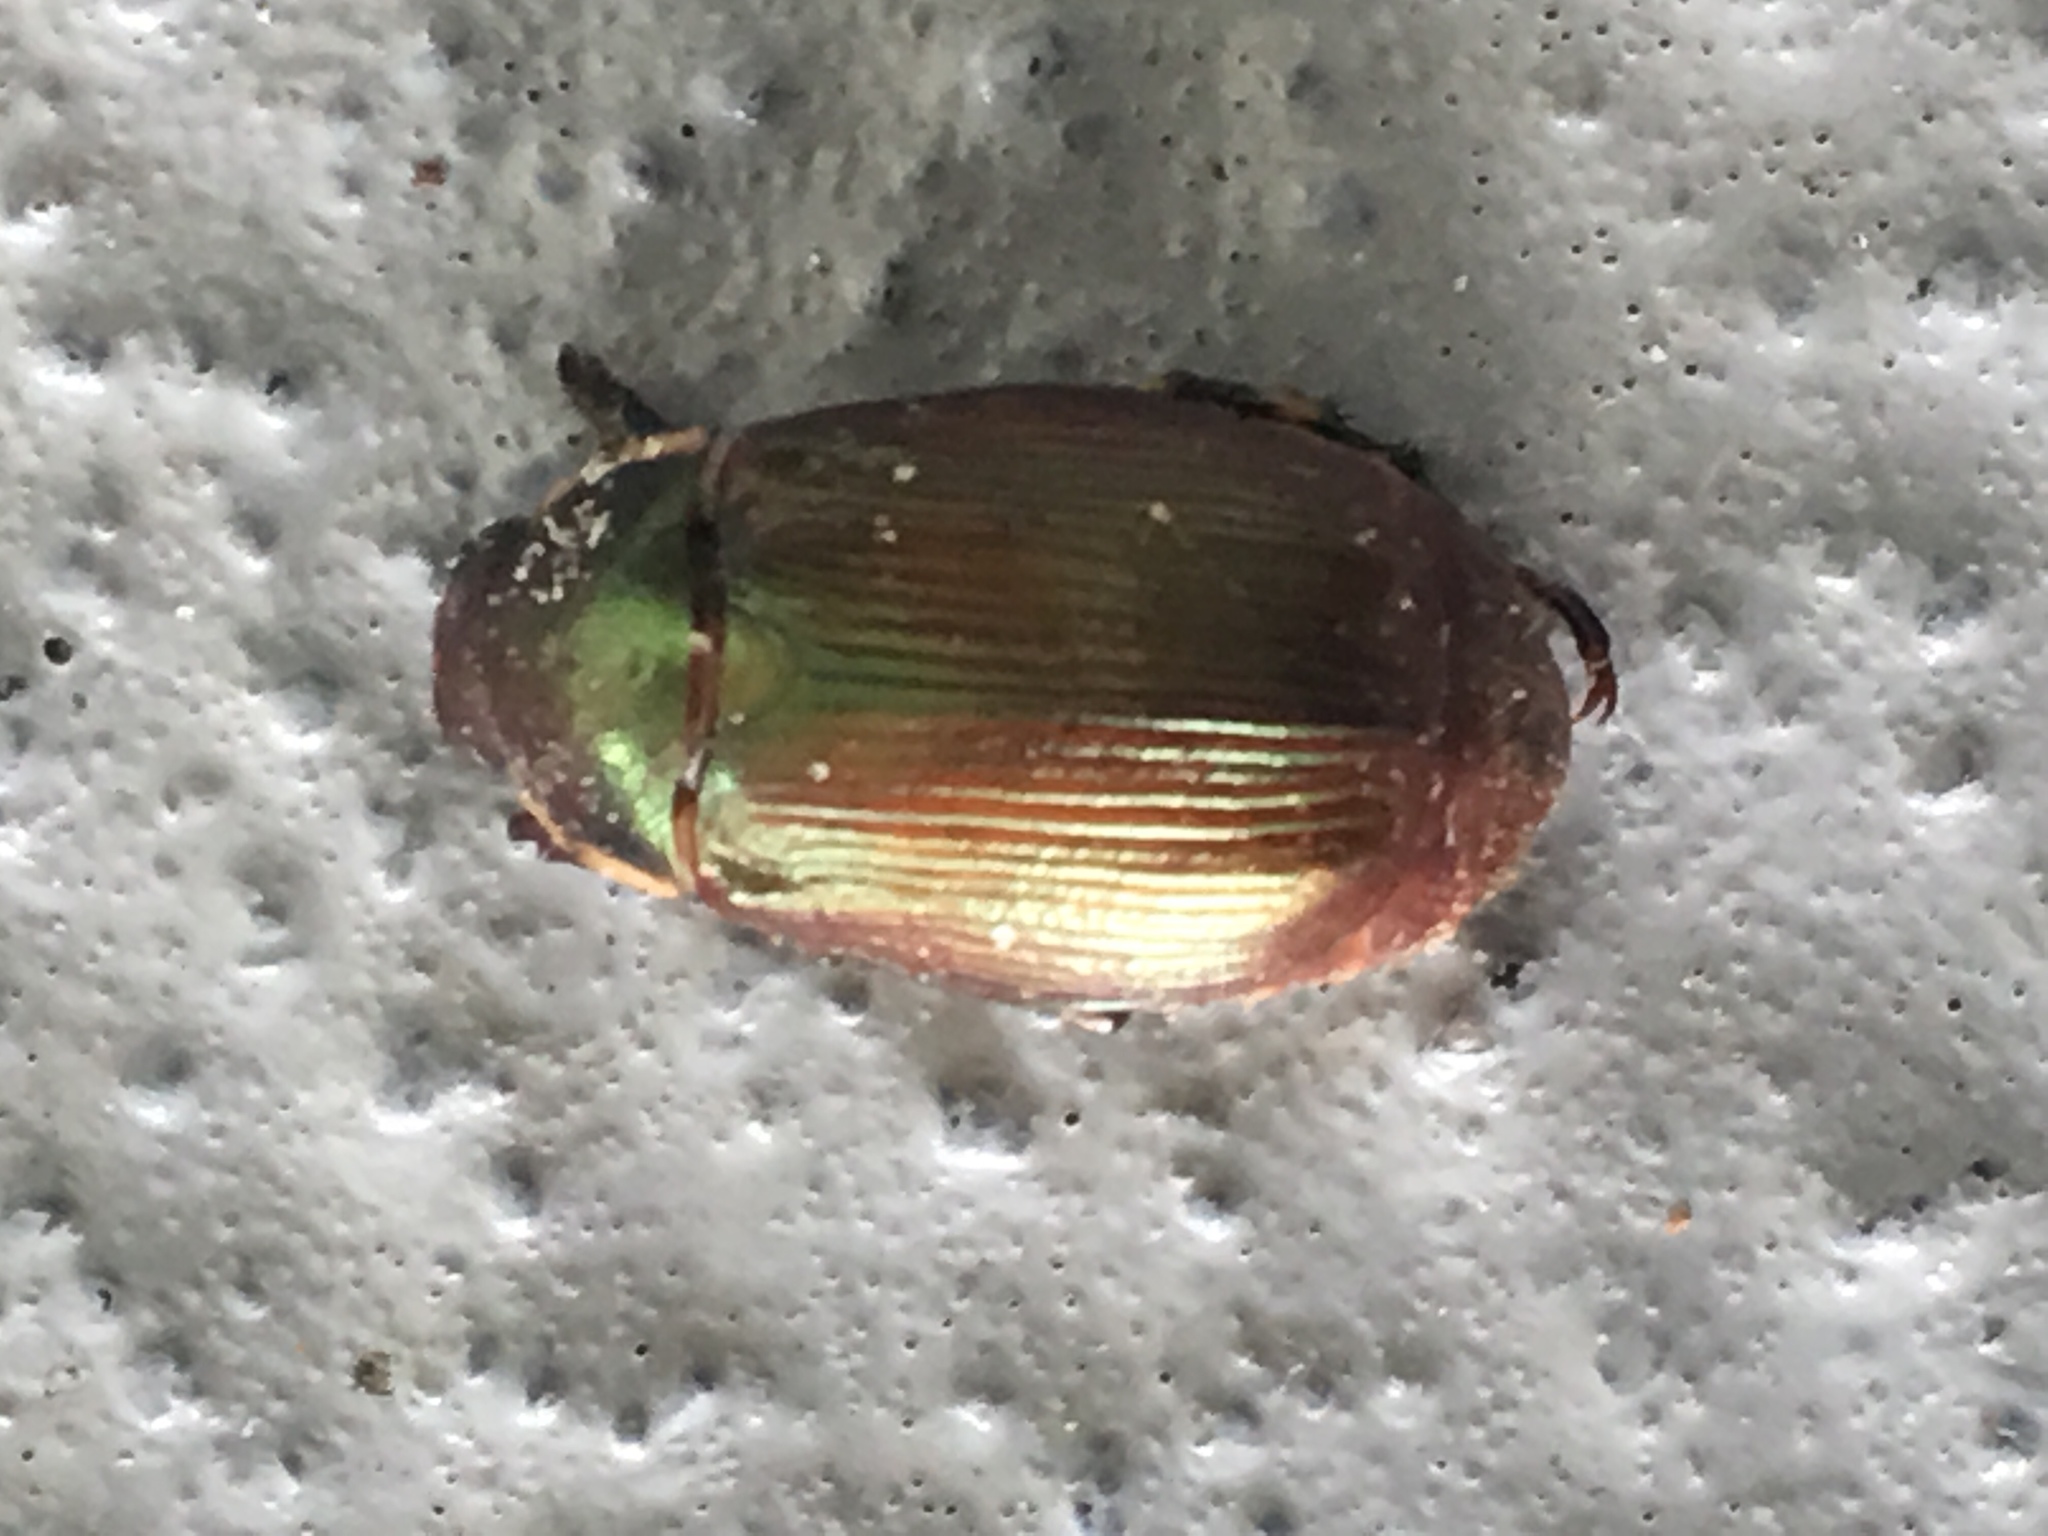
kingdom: Animalia
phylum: Arthropoda
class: Insecta
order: Coleoptera
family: Scarabaeidae
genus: Callistethus
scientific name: Callistethus marginatus
